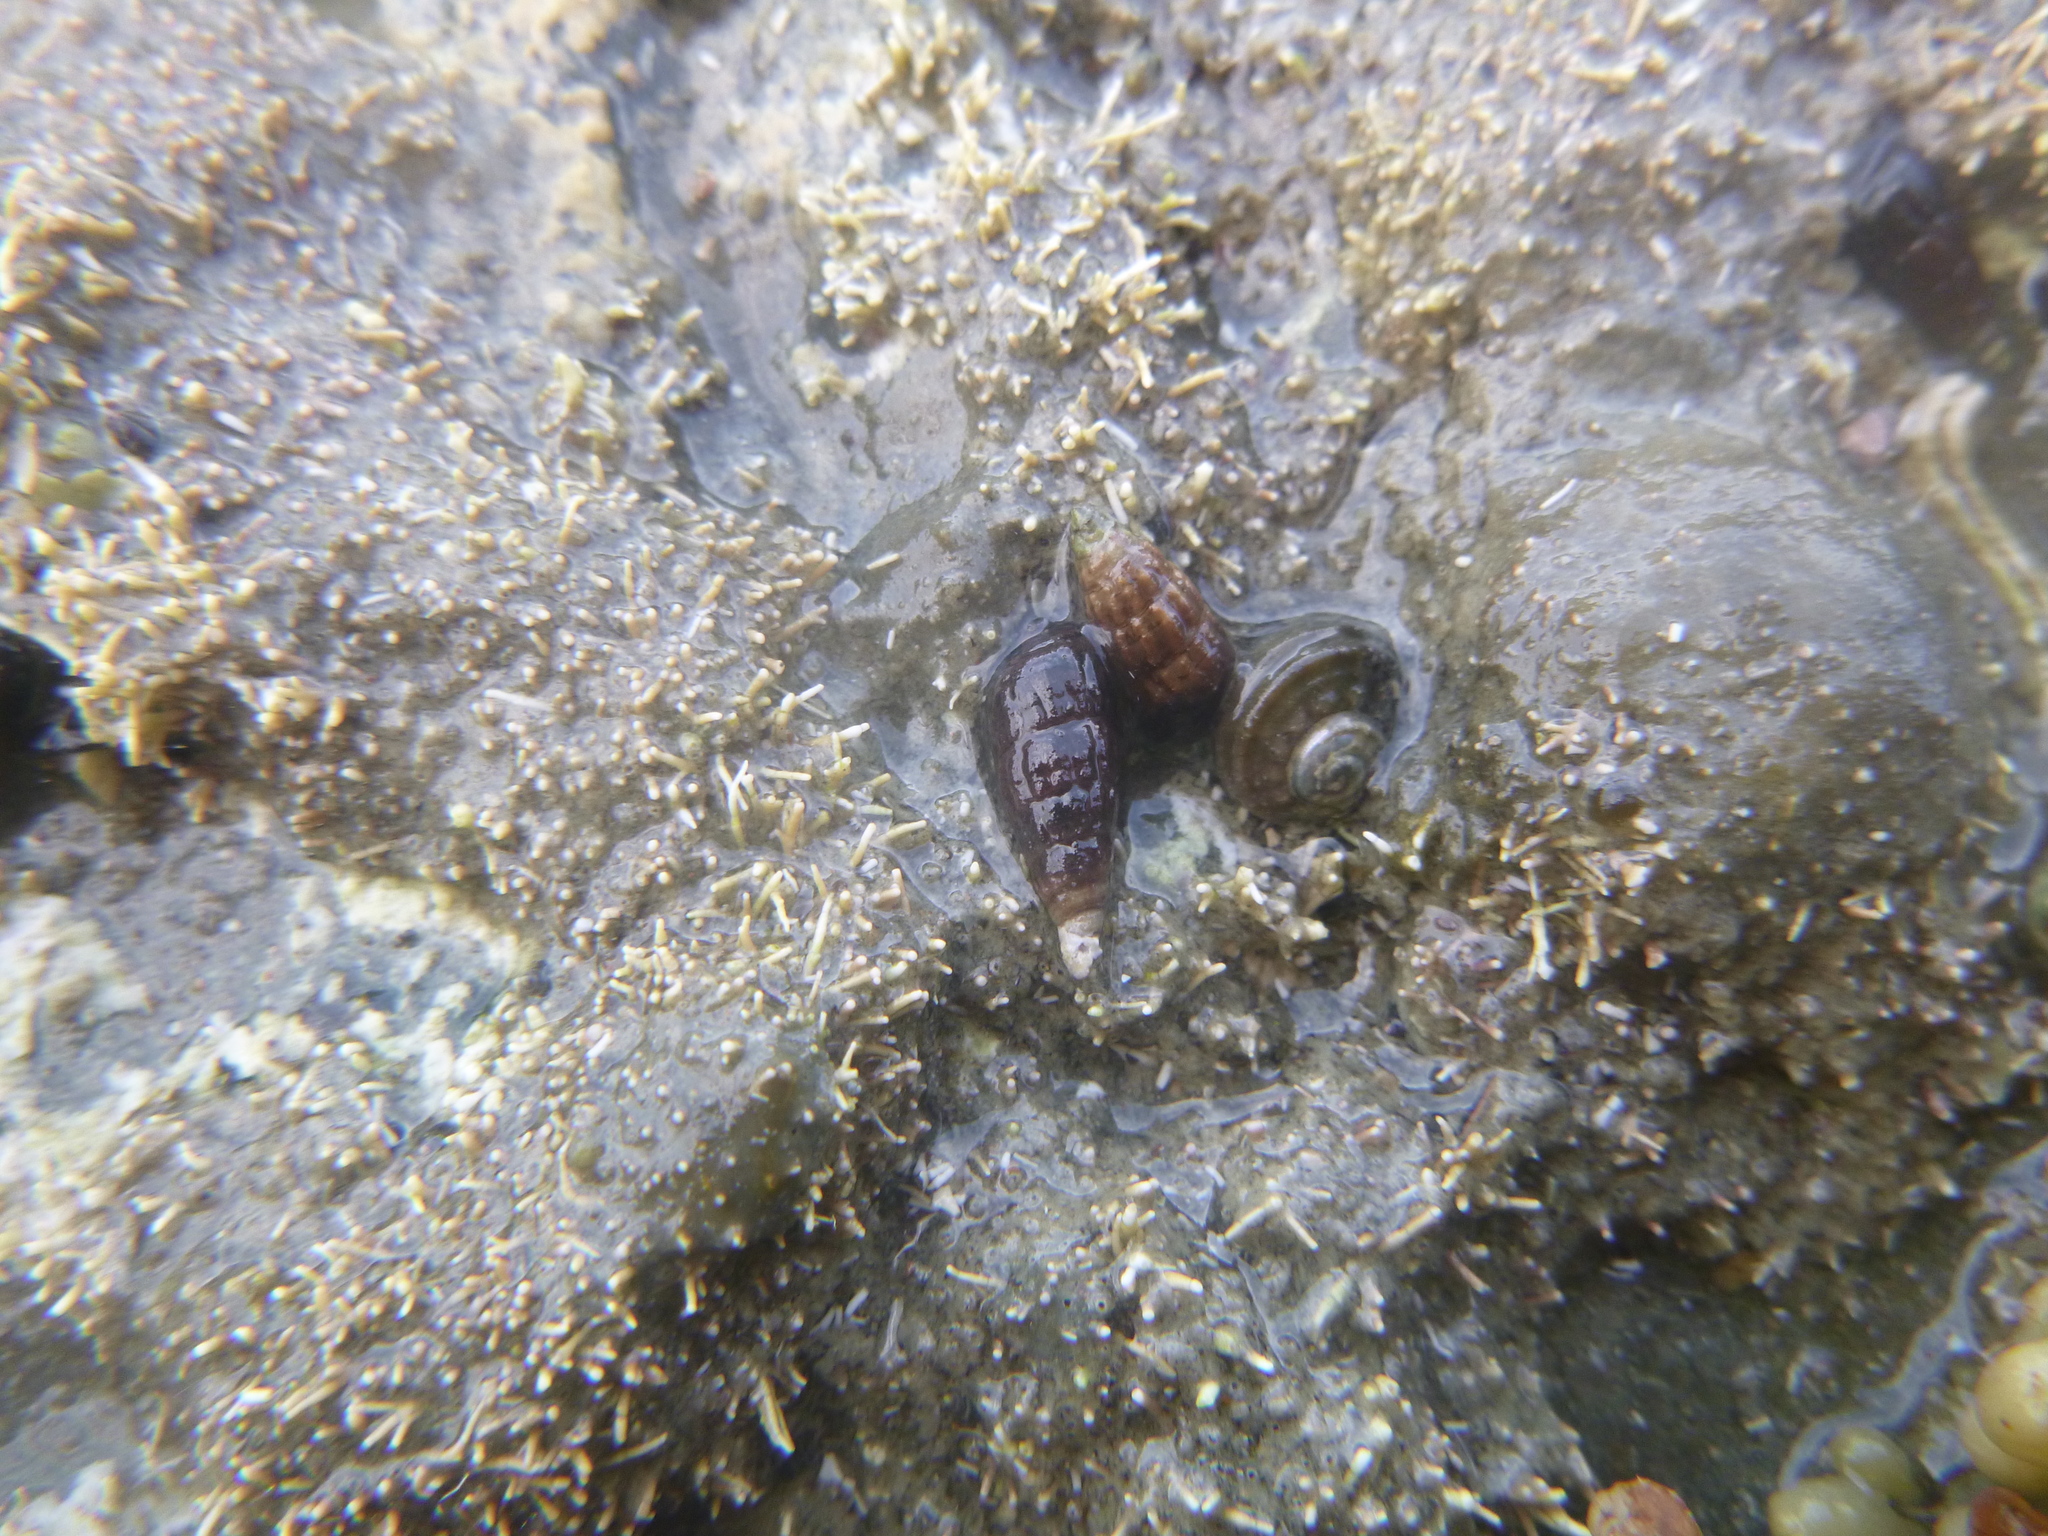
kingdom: Animalia
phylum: Mollusca
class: Gastropoda
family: Batillariidae
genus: Zeacumantus
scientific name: Zeacumantus subcarinatus
